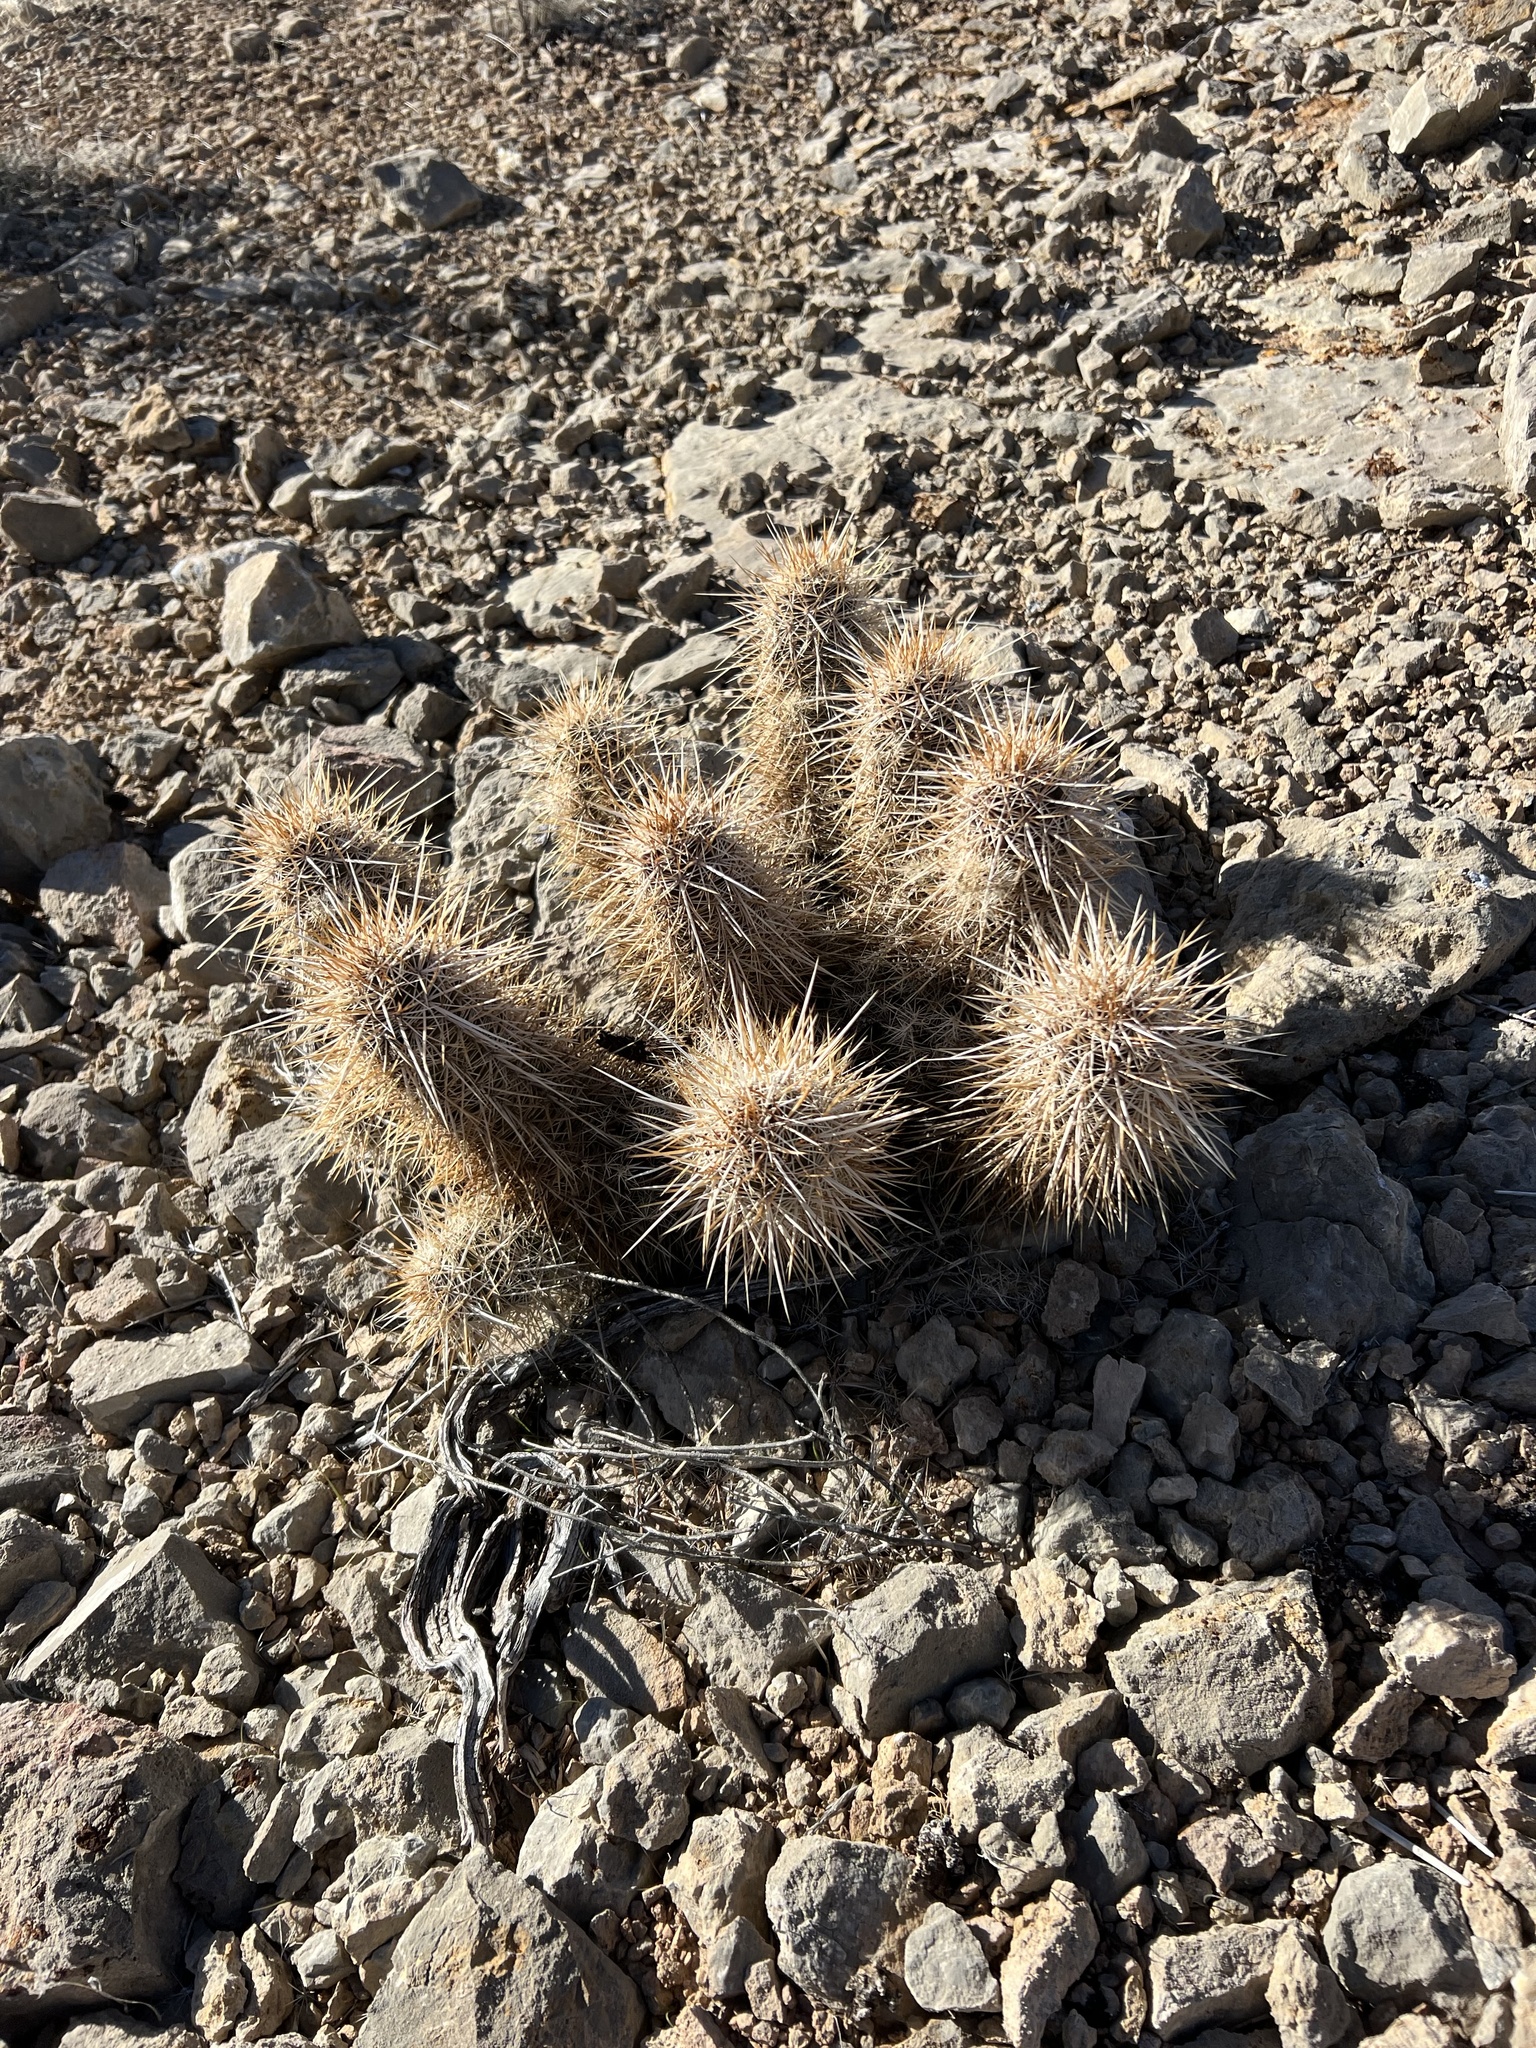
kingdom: Plantae
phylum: Tracheophyta
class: Magnoliopsida
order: Caryophyllales
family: Cactaceae
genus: Echinocereus
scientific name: Echinocereus engelmannii
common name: Engelmann's hedgehog cactus
